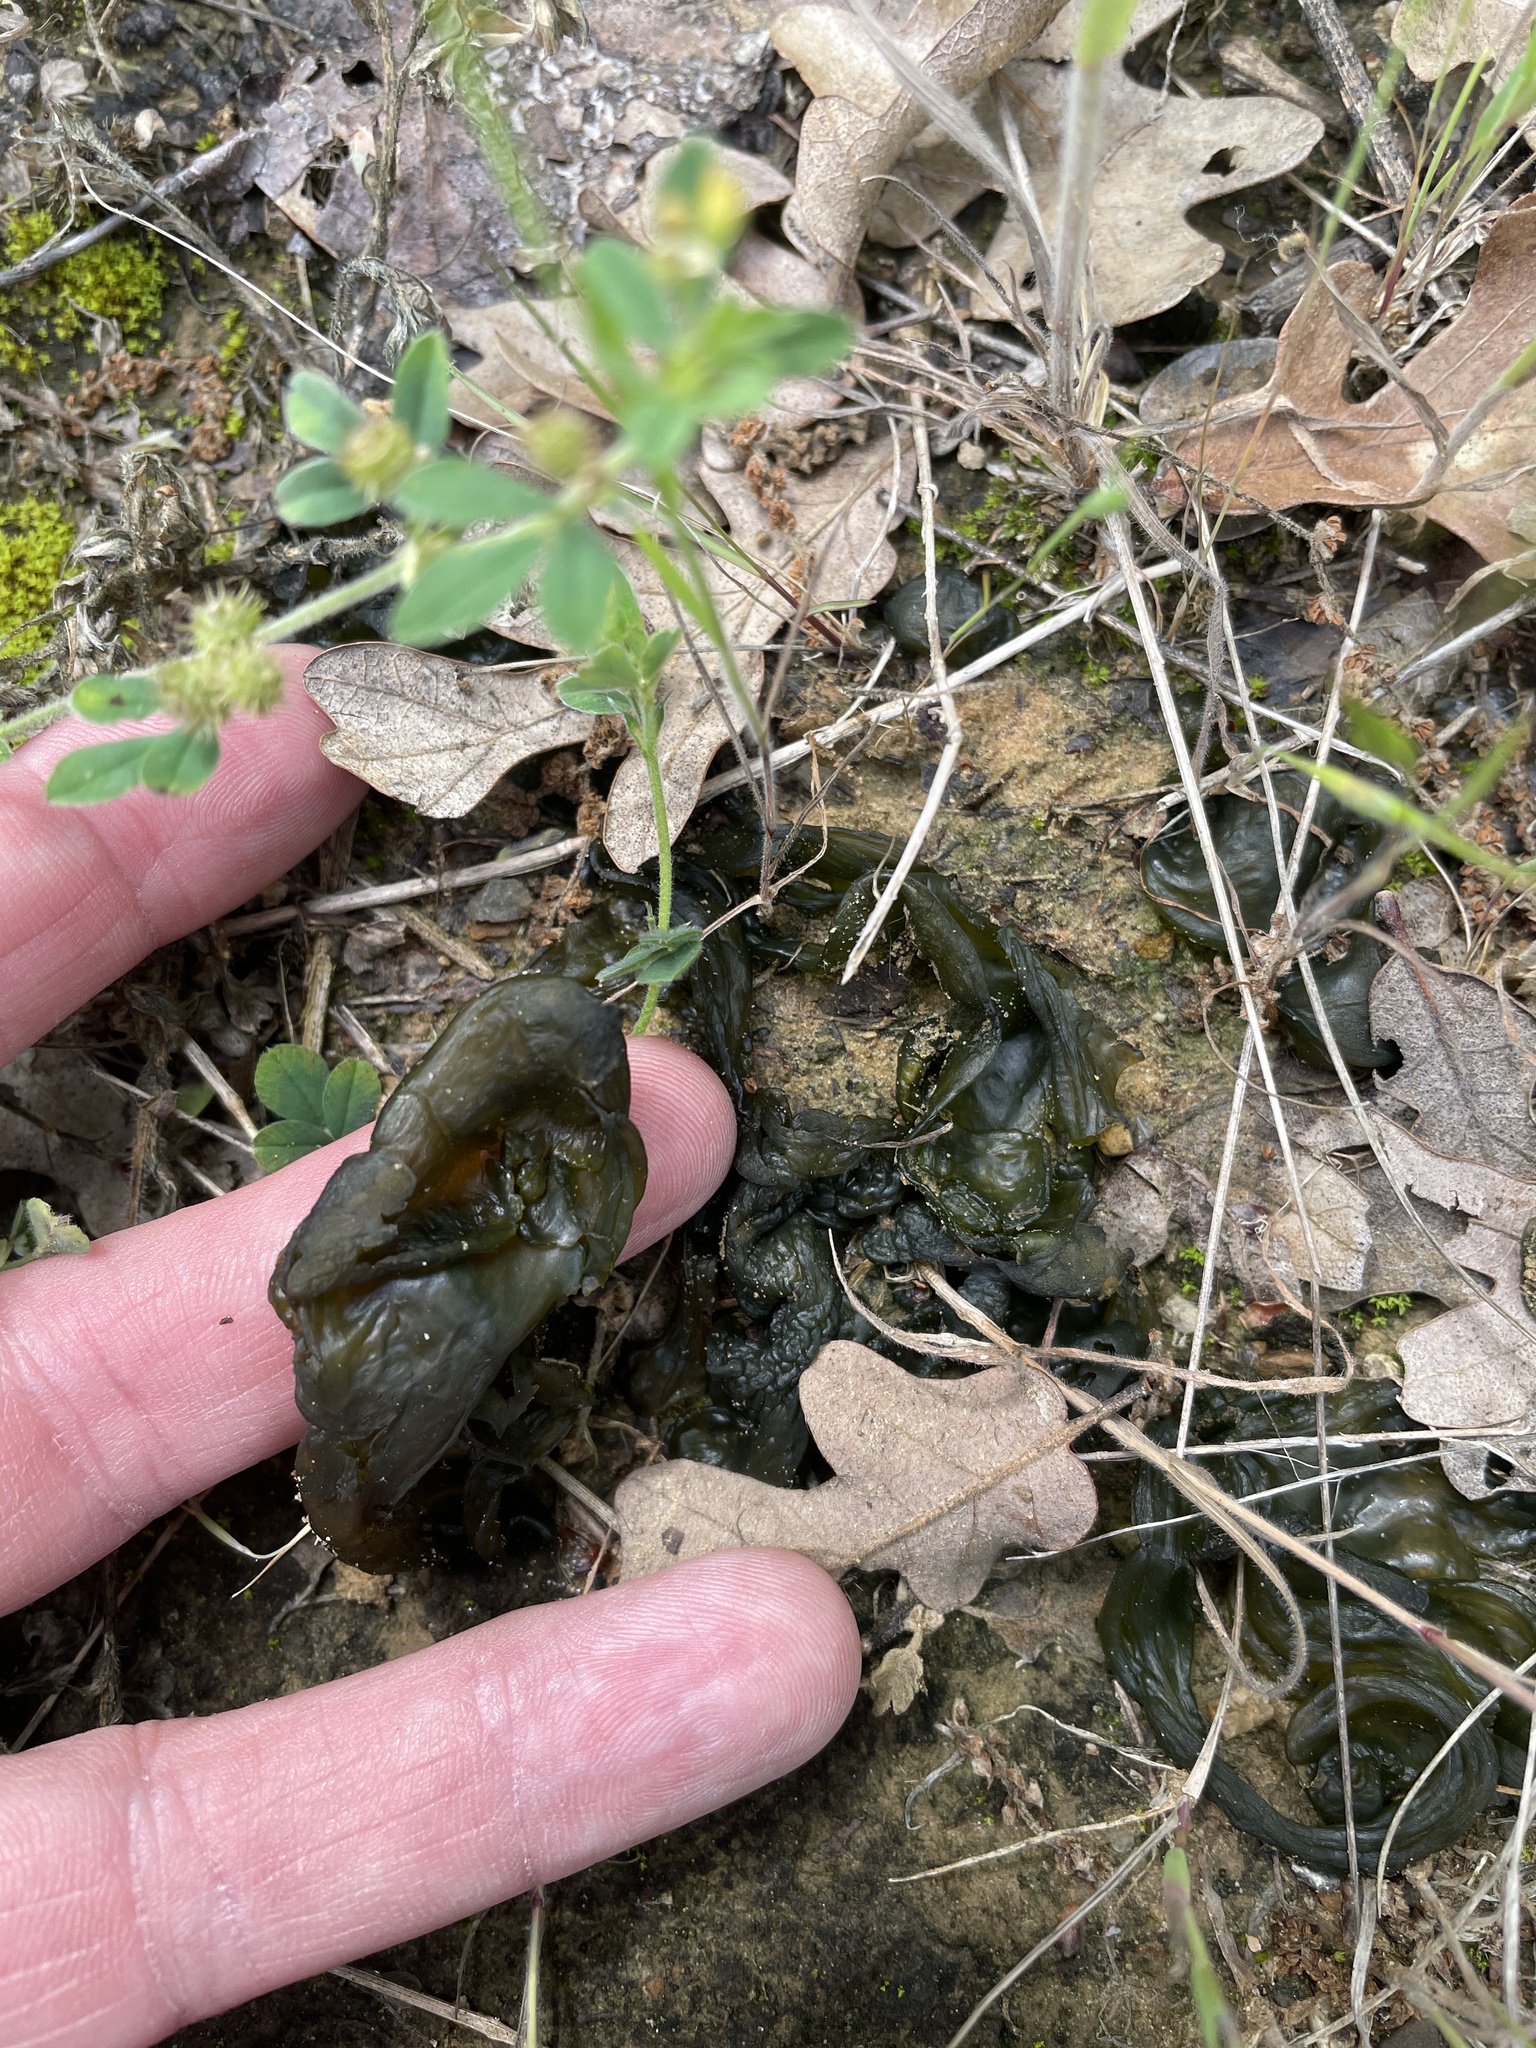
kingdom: Bacteria
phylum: Cyanobacteria
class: Cyanobacteriia
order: Cyanobacteriales
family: Nostocaceae
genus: Nostoc
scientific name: Nostoc commune
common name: Star jelly
